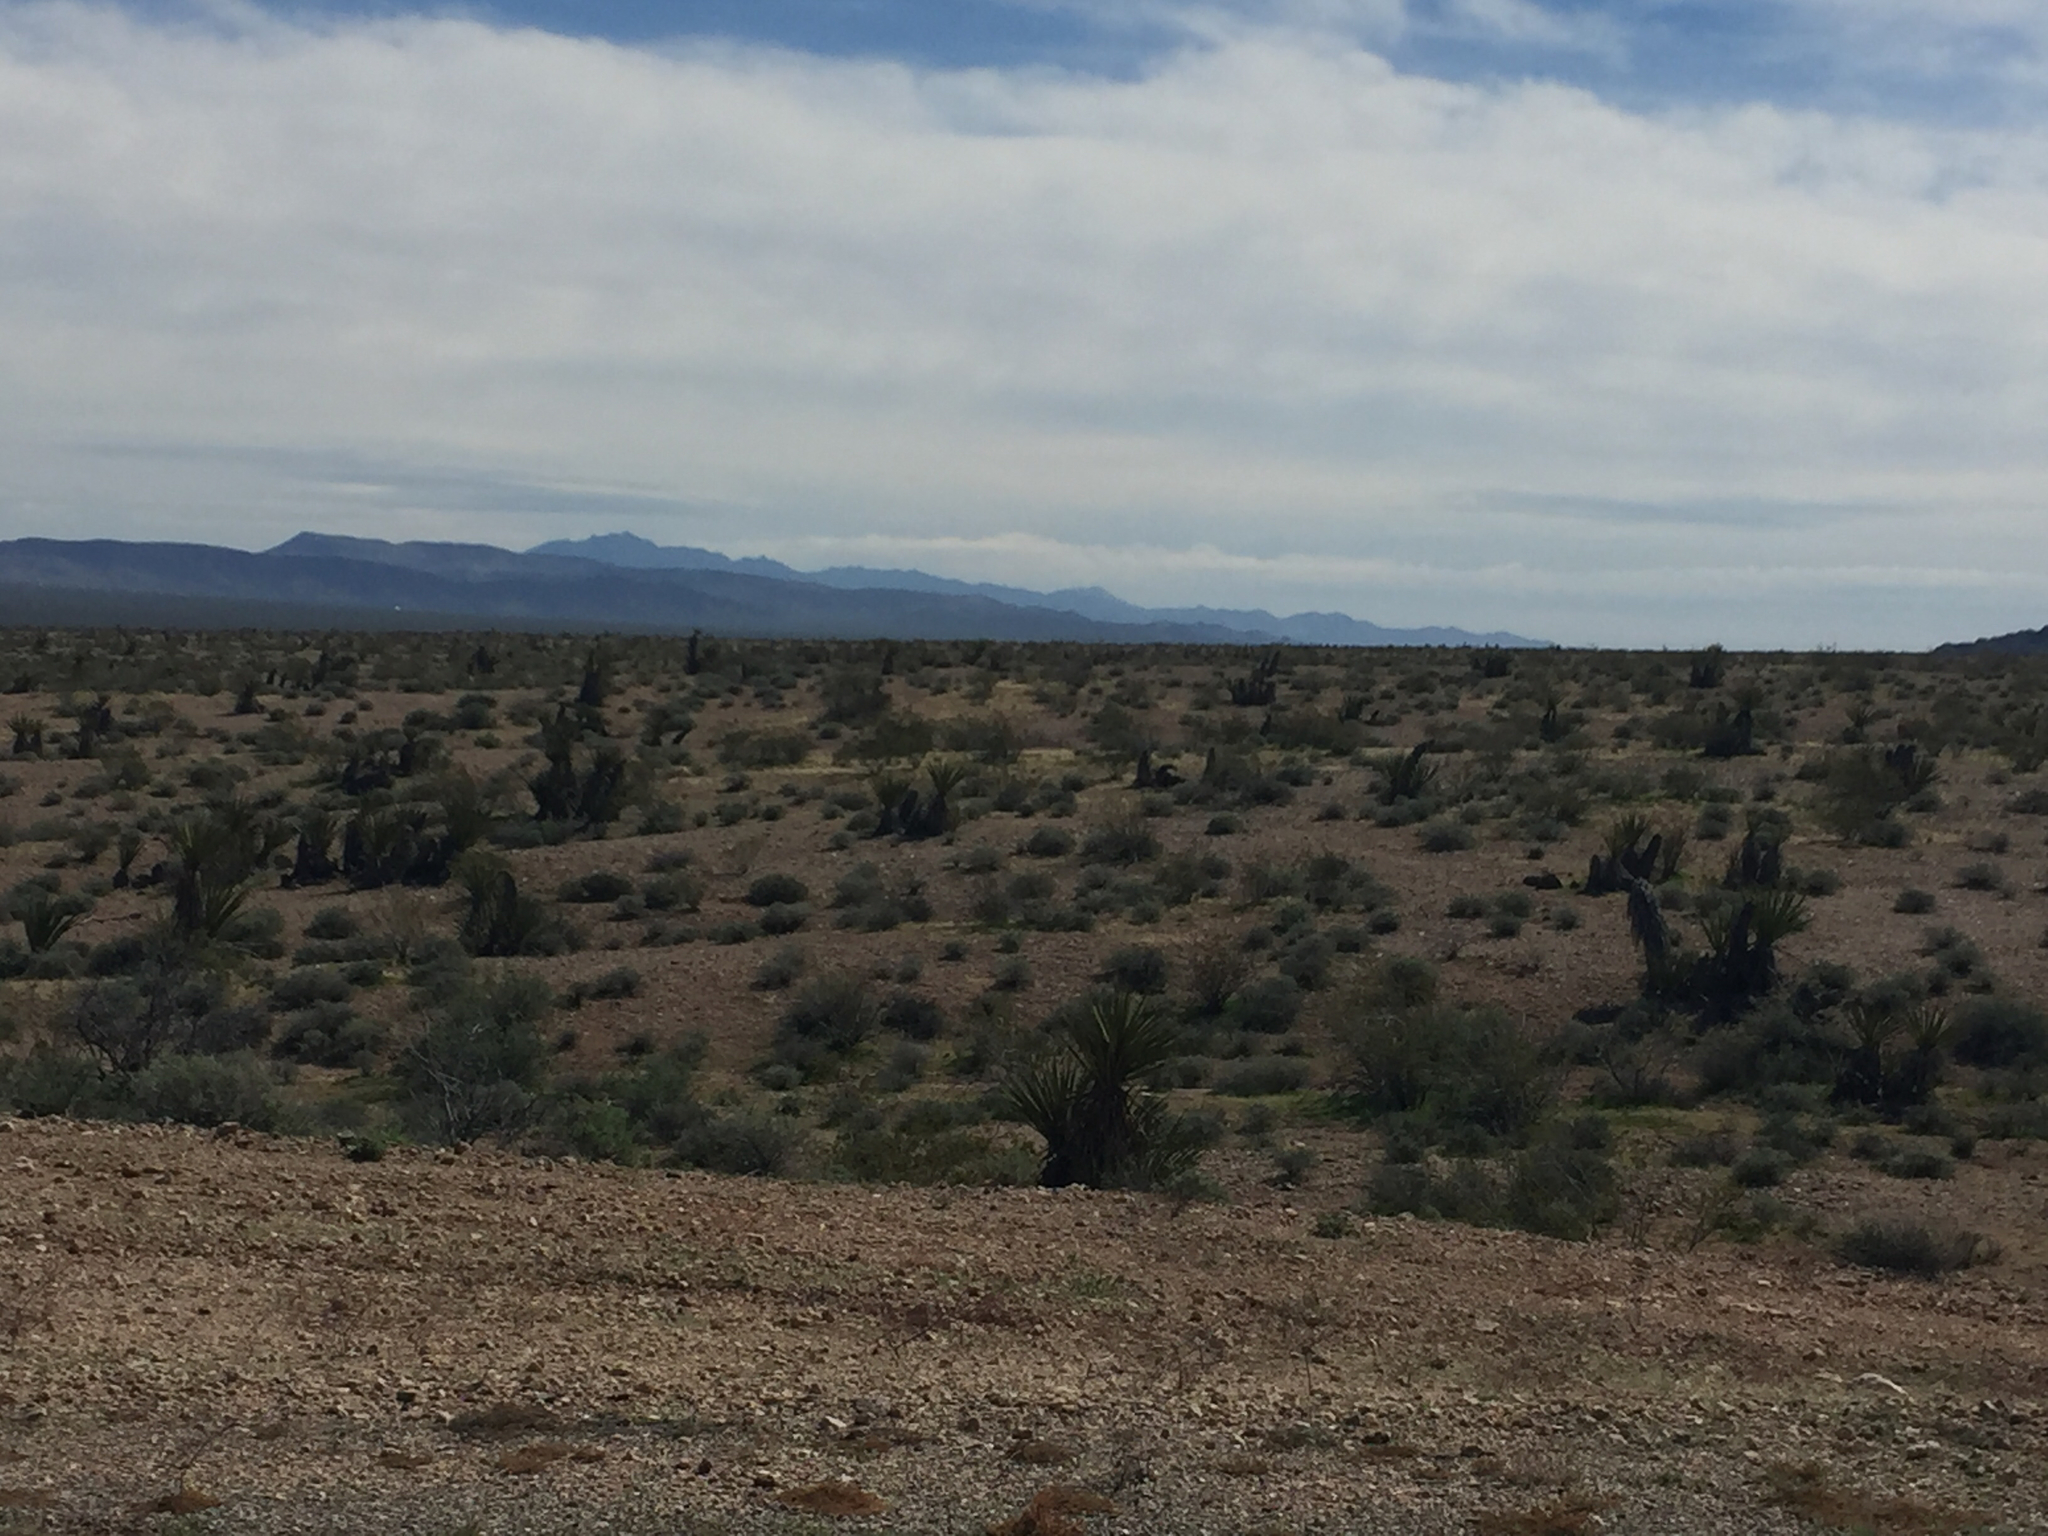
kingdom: Plantae
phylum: Tracheophyta
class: Liliopsida
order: Asparagales
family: Asparagaceae
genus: Yucca
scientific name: Yucca schidigera
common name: Mojave yucca
